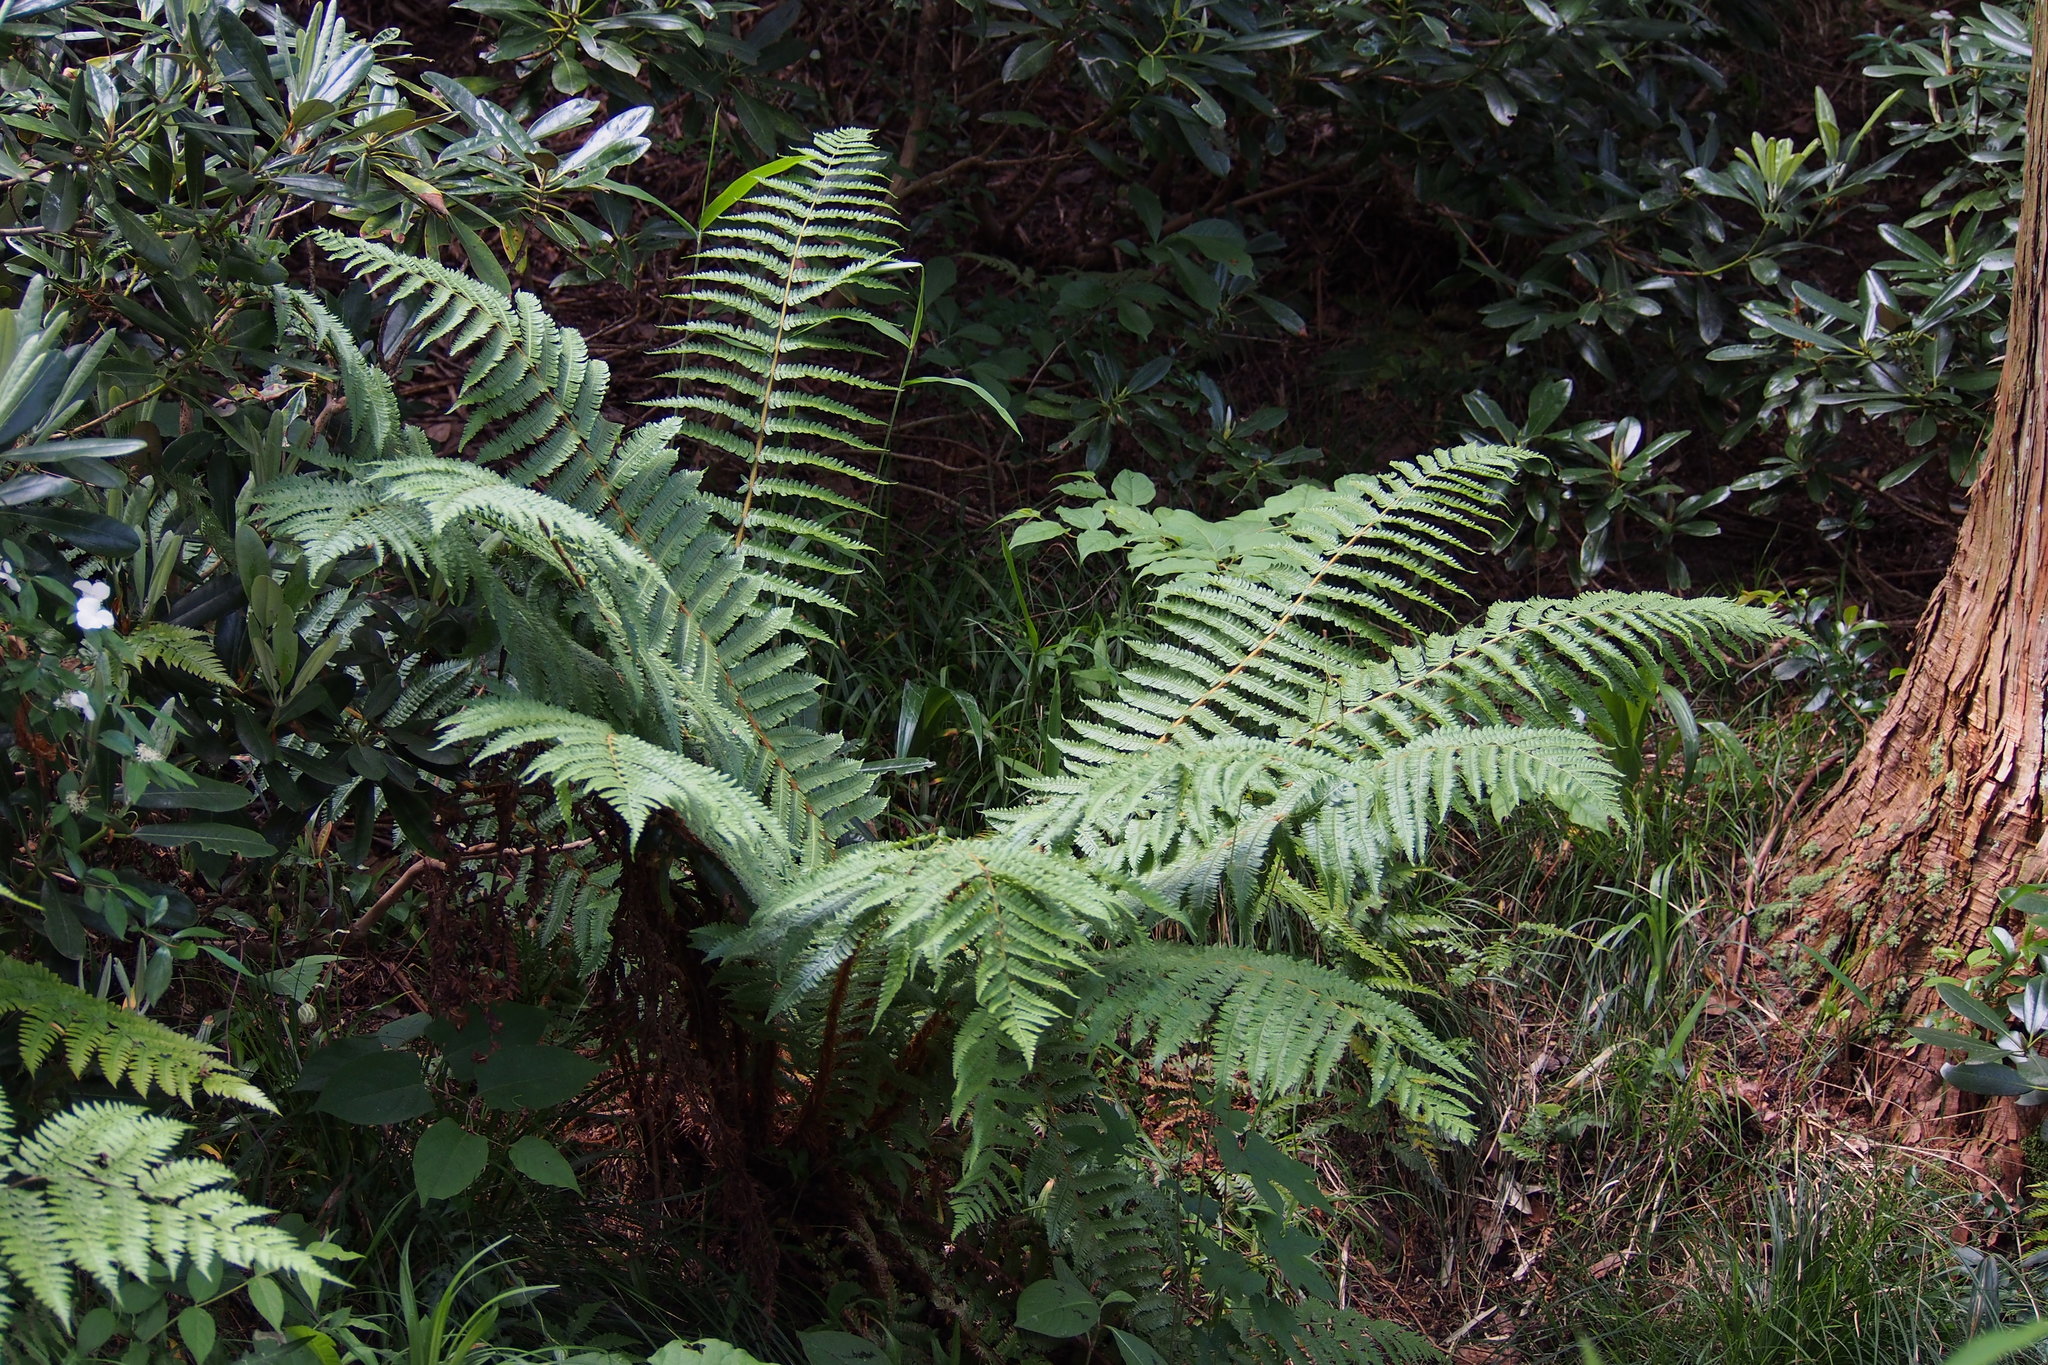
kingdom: Plantae
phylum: Tracheophyta
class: Polypodiopsida
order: Polypodiales
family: Dryopteridaceae
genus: Dryopteris
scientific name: Dryopteris crassirhizoma
